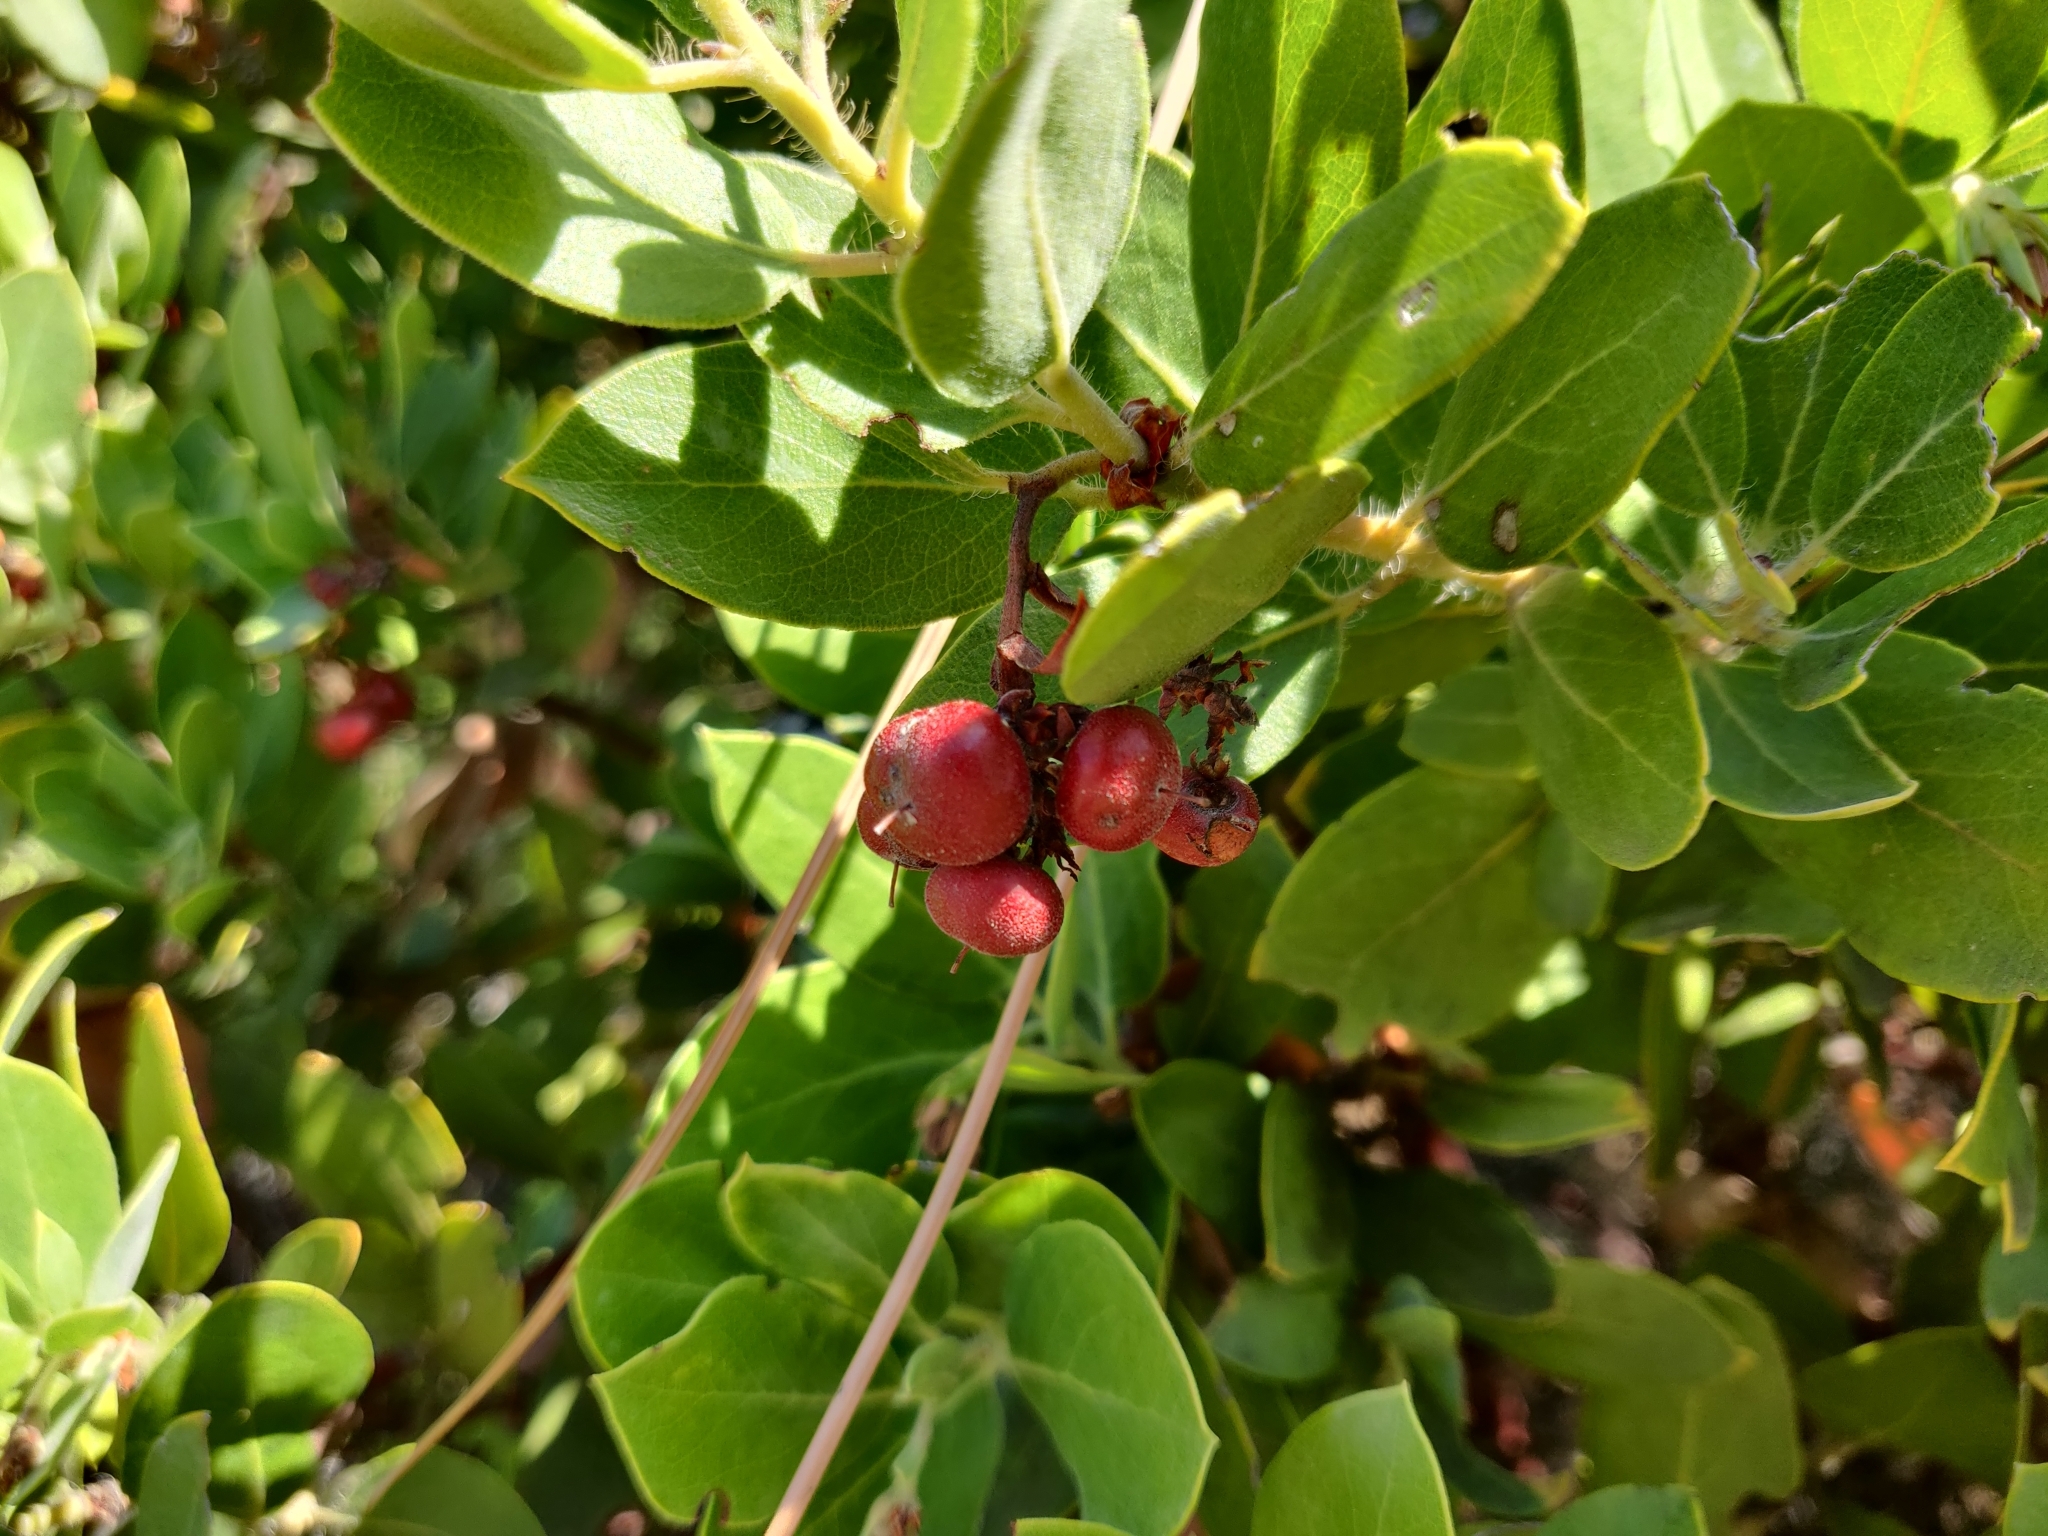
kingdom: Plantae
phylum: Tracheophyta
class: Magnoliopsida
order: Ericales
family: Ericaceae
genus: Arctostaphylos
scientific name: Arctostaphylos crustacea
